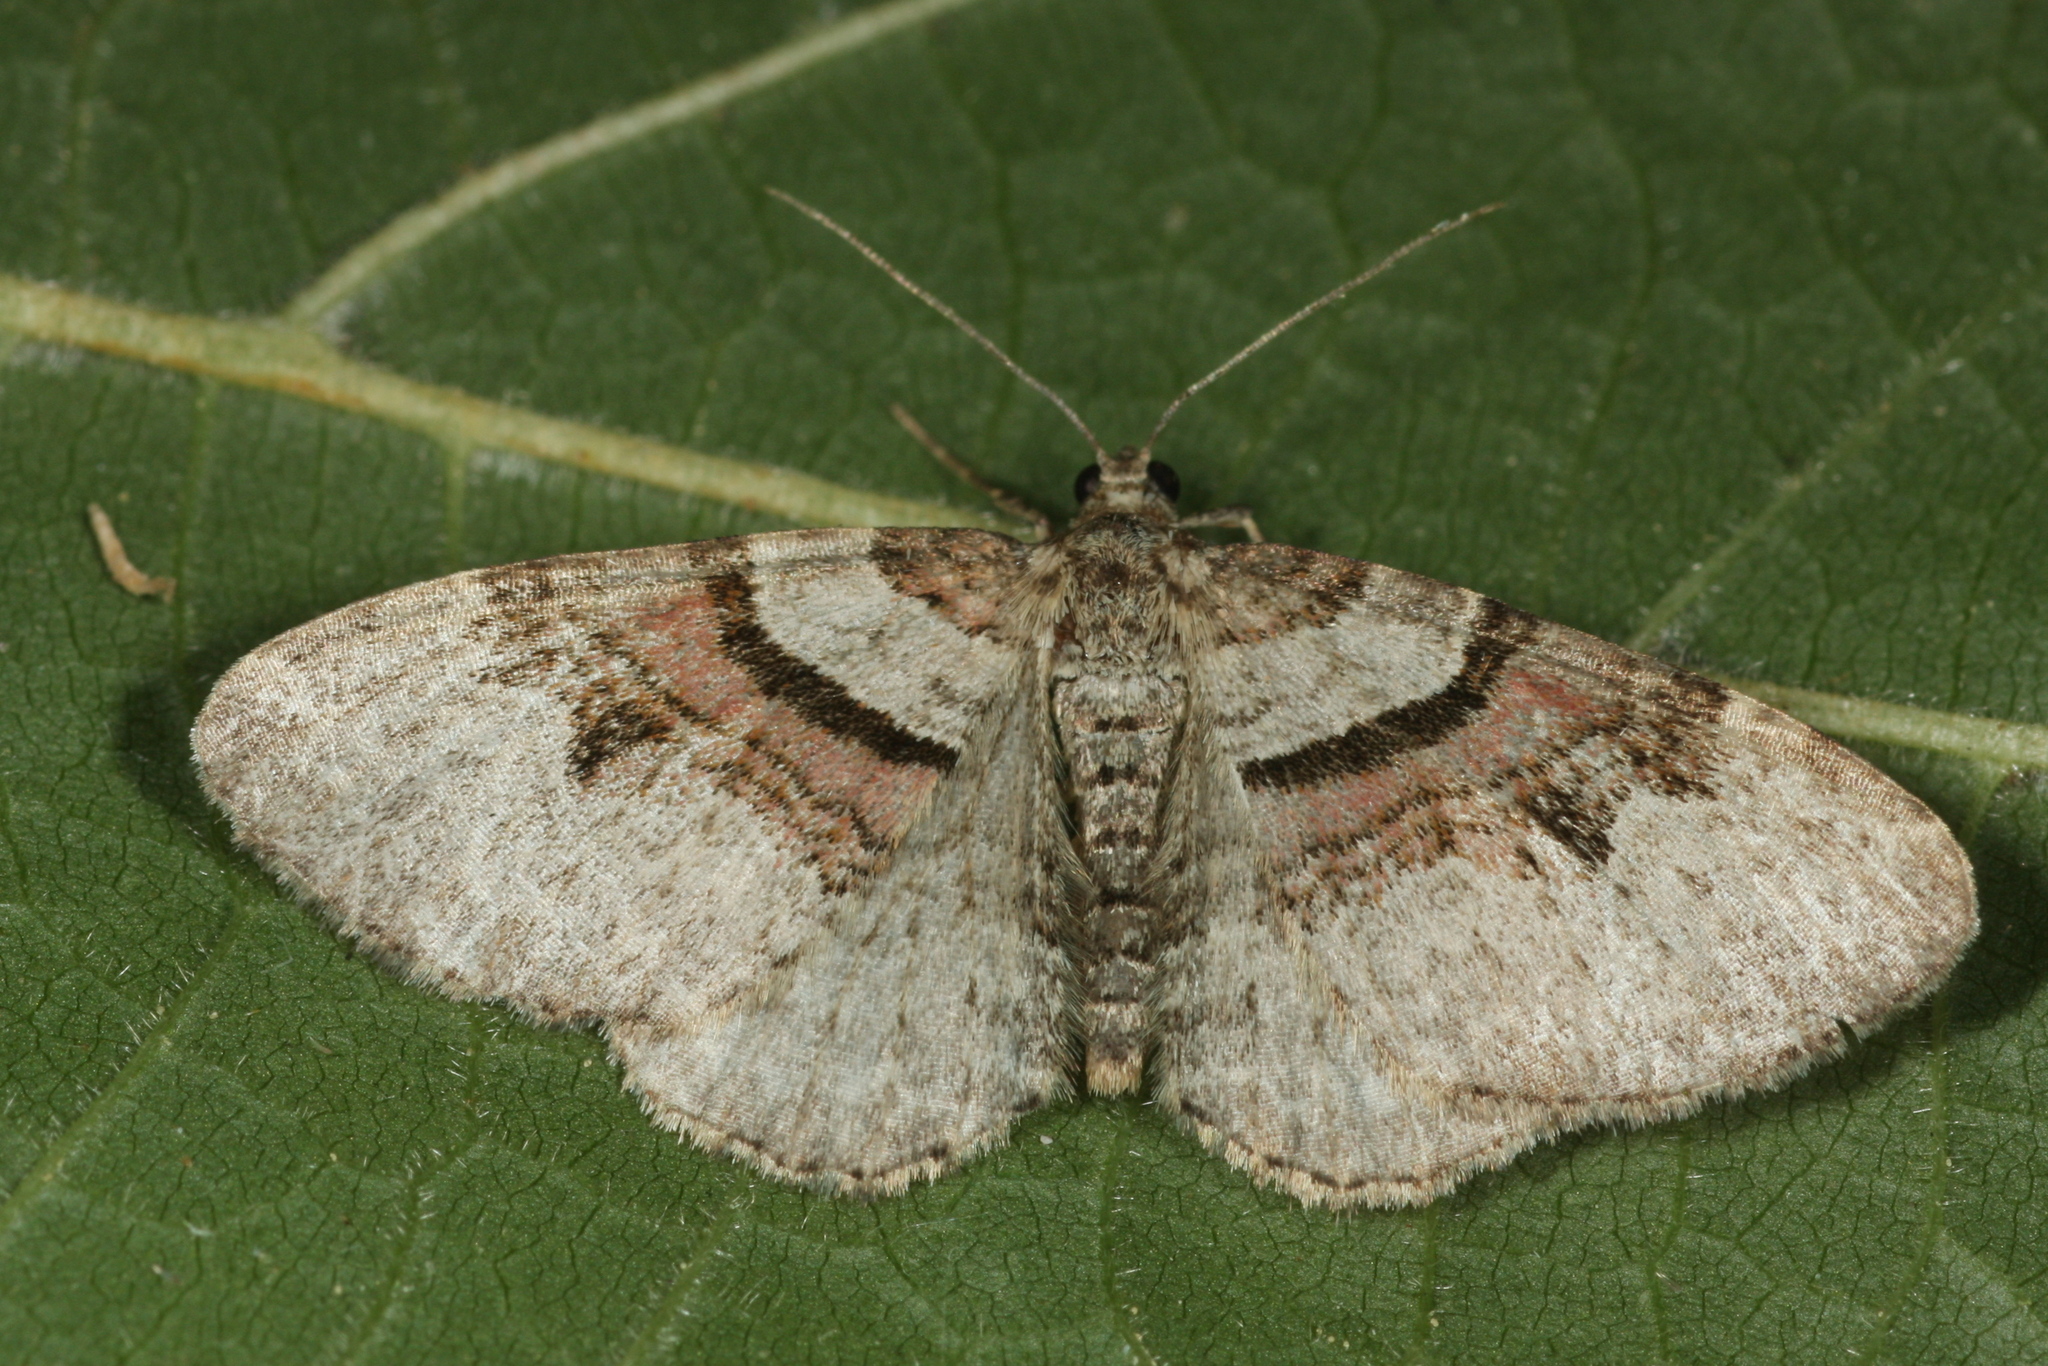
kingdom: Animalia
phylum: Arthropoda
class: Insecta
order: Lepidoptera
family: Geometridae
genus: Xanthorhoe
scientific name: Xanthorhoe designata
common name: Flame carpet
